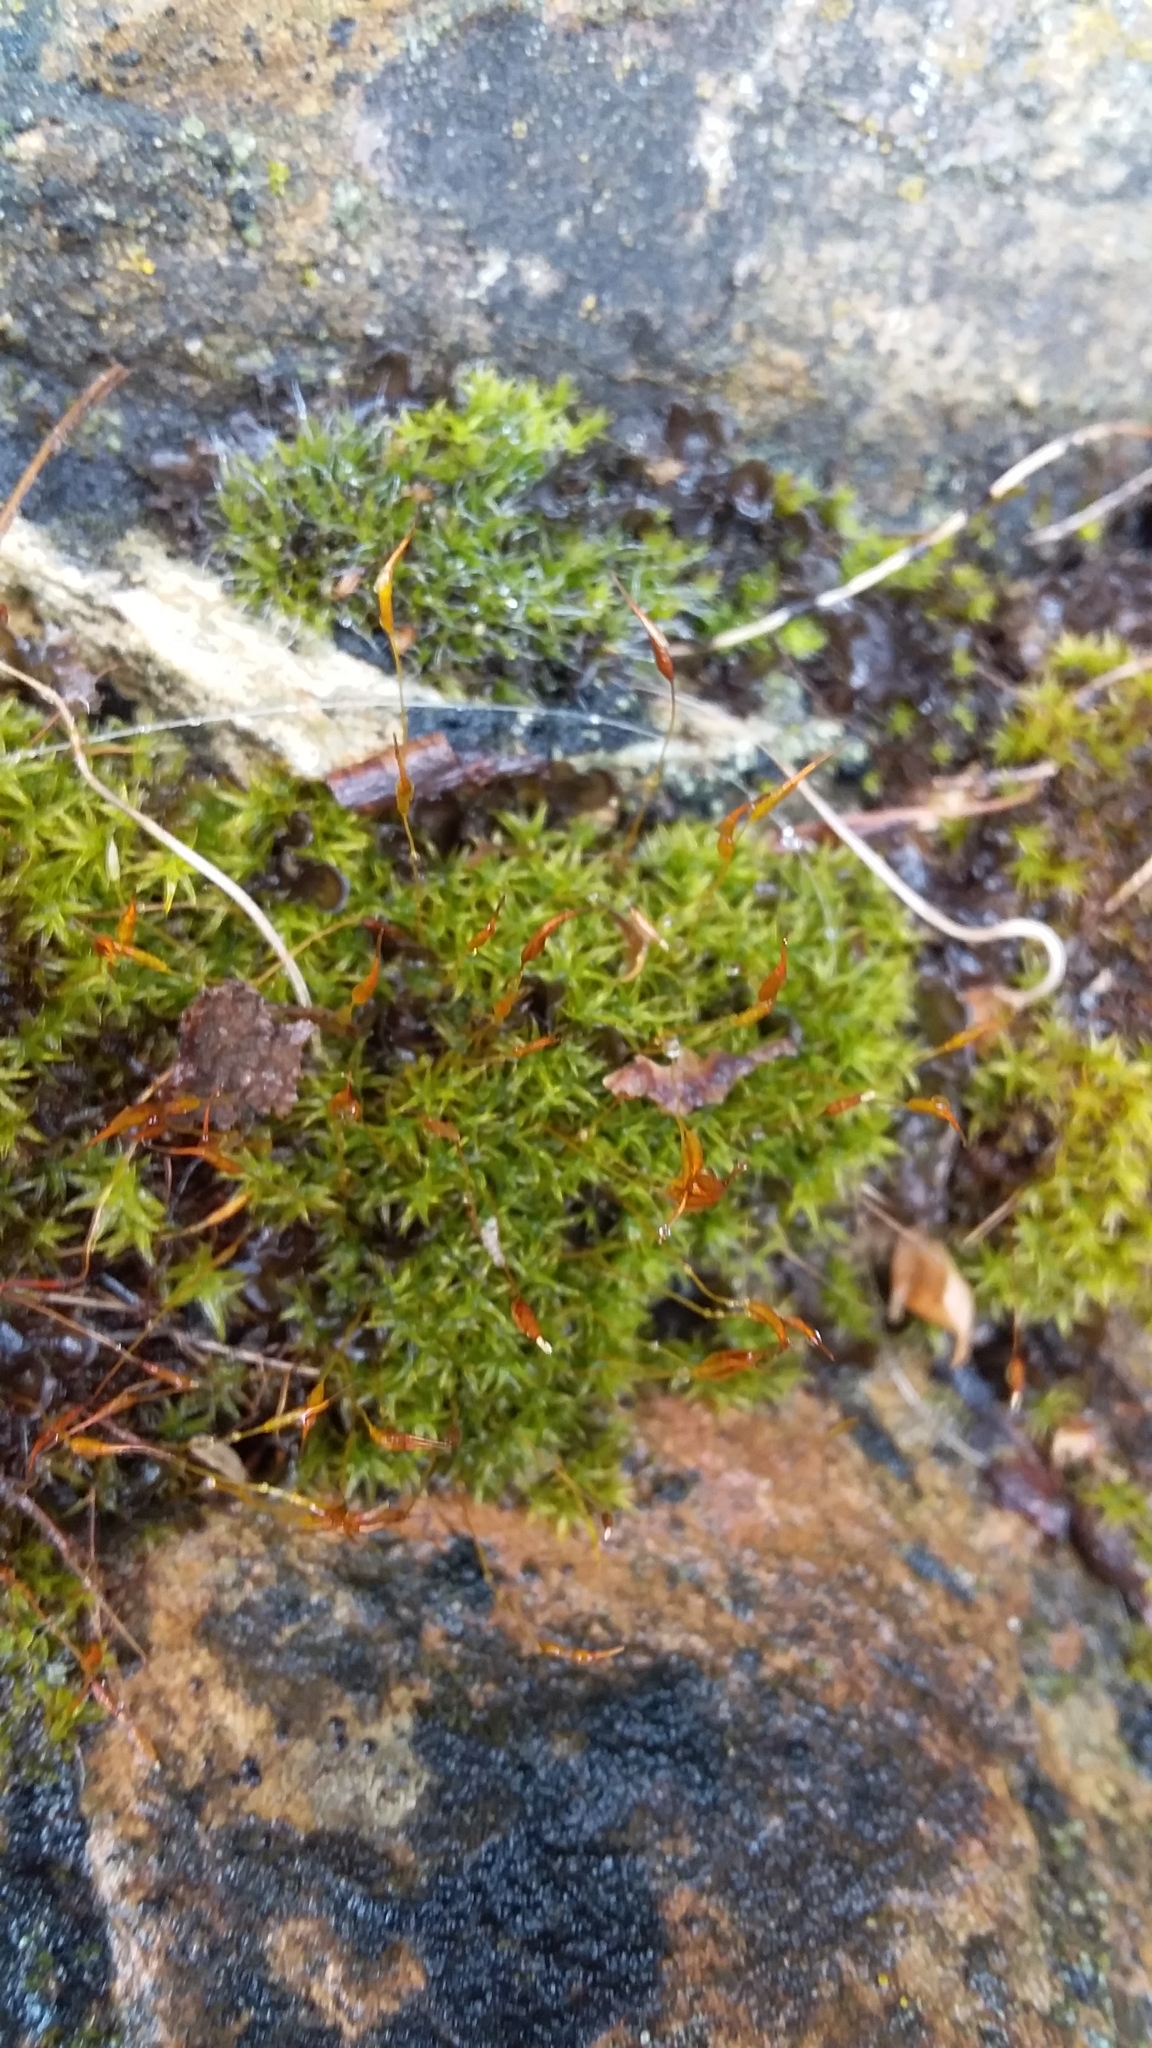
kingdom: Plantae
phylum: Bryophyta
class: Bryopsida
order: Pottiales
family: Pottiaceae
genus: Pseudocrossidium
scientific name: Pseudocrossidium crinitum
